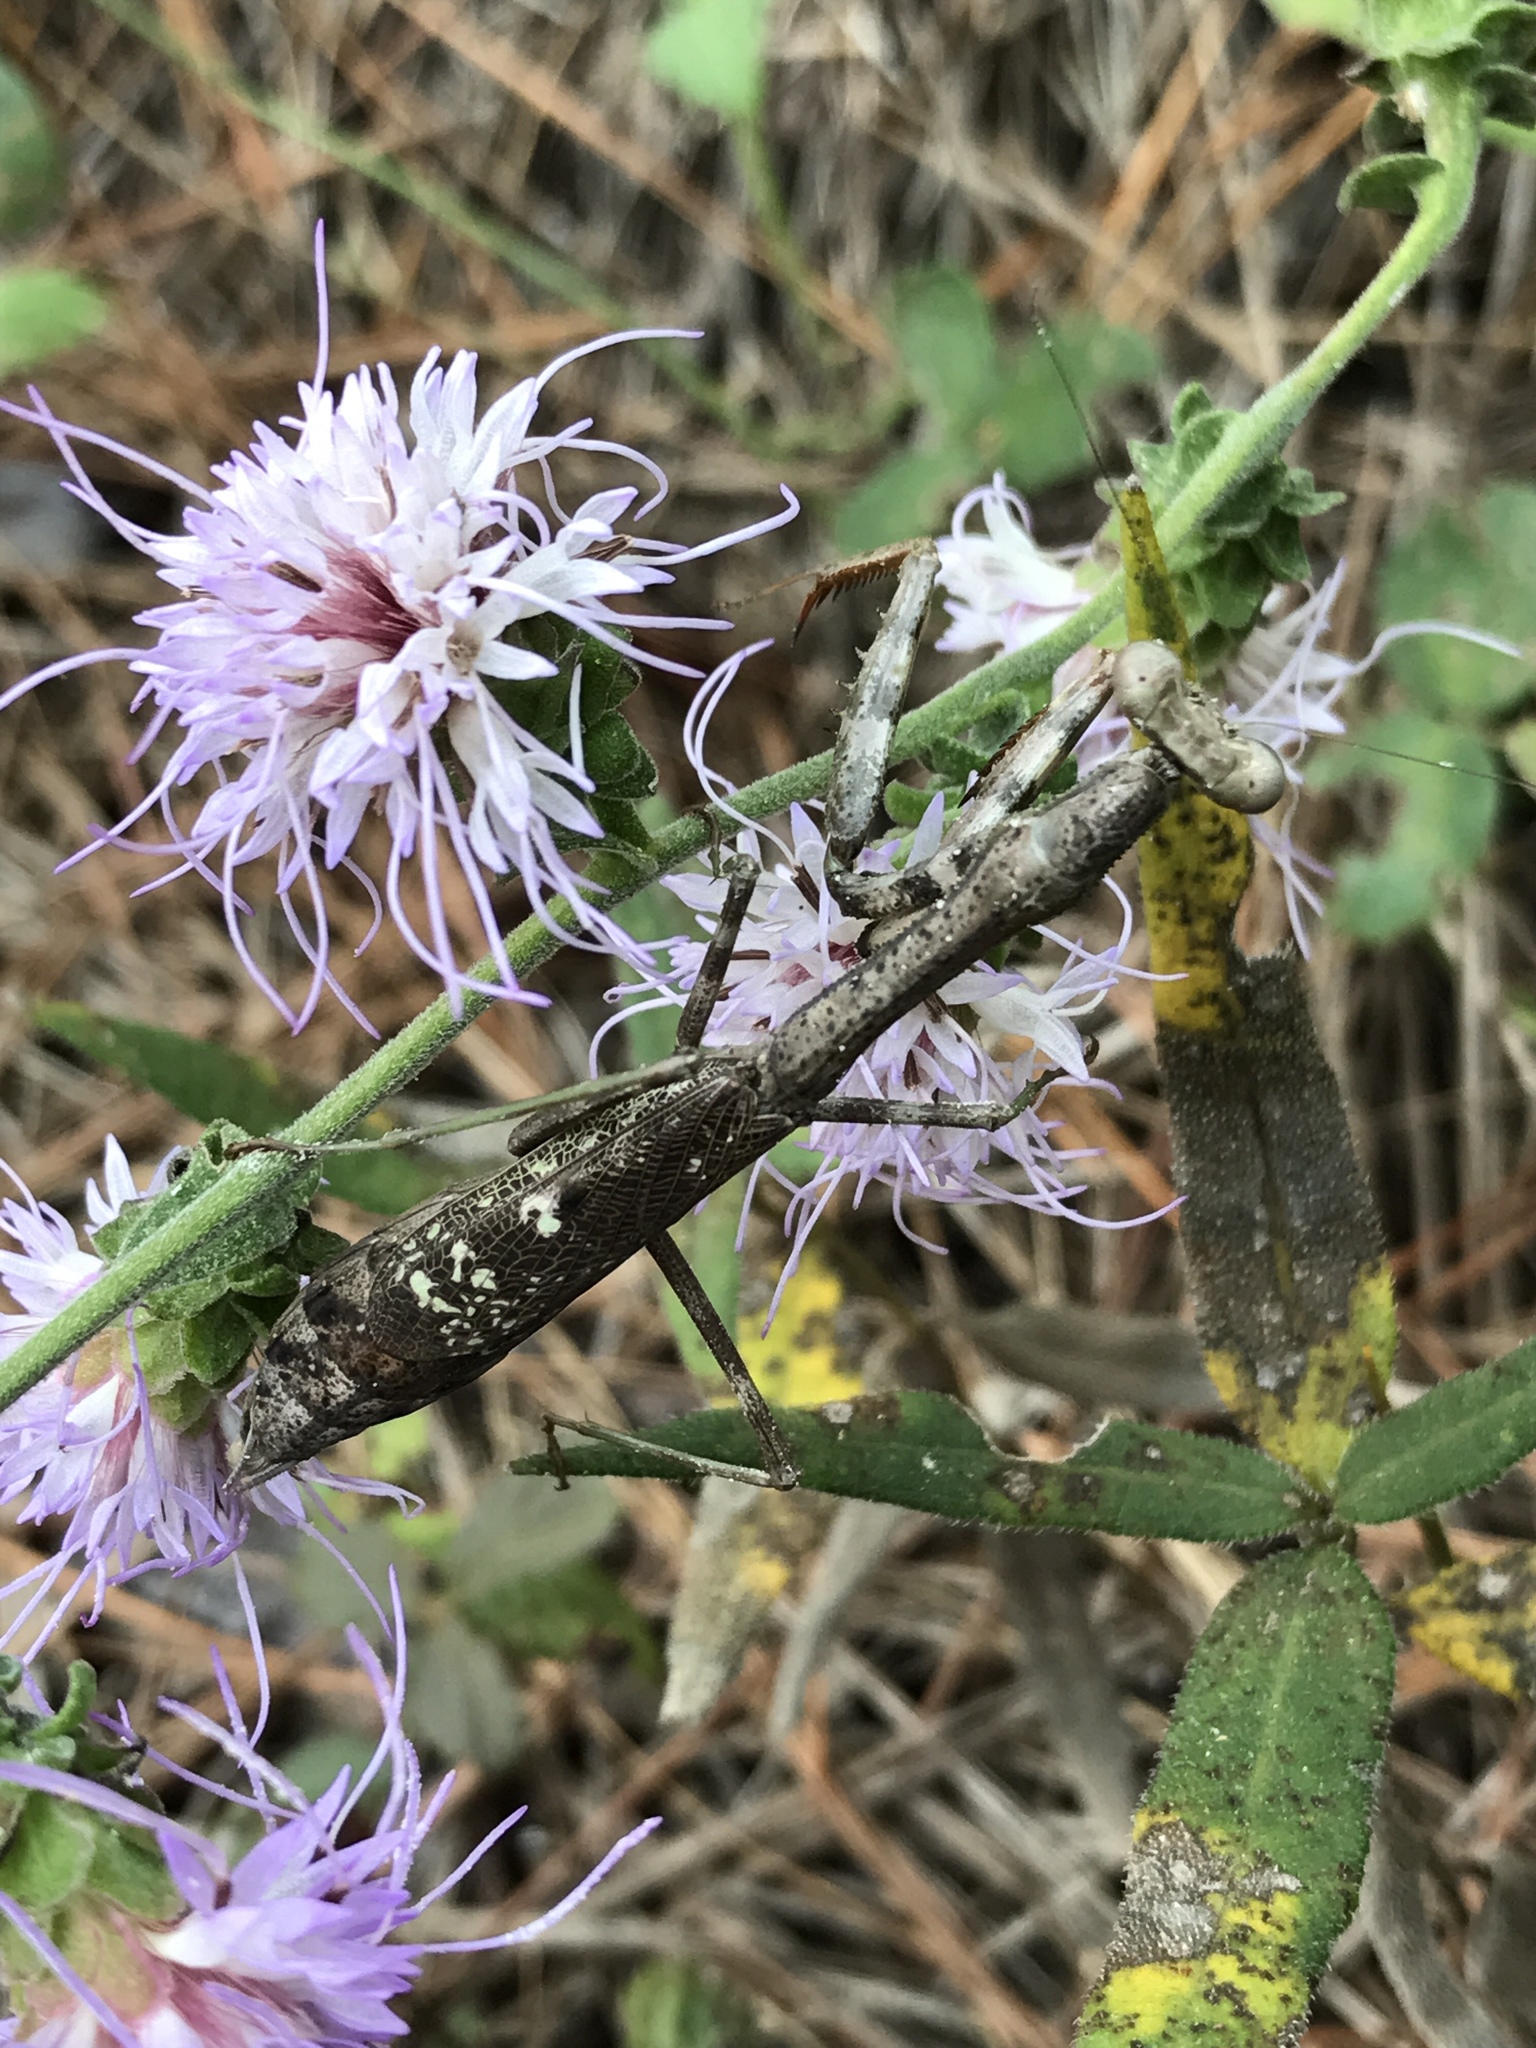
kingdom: Animalia
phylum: Arthropoda
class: Insecta
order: Mantodea
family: Mantidae
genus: Stagmomantis
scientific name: Stagmomantis carolina
